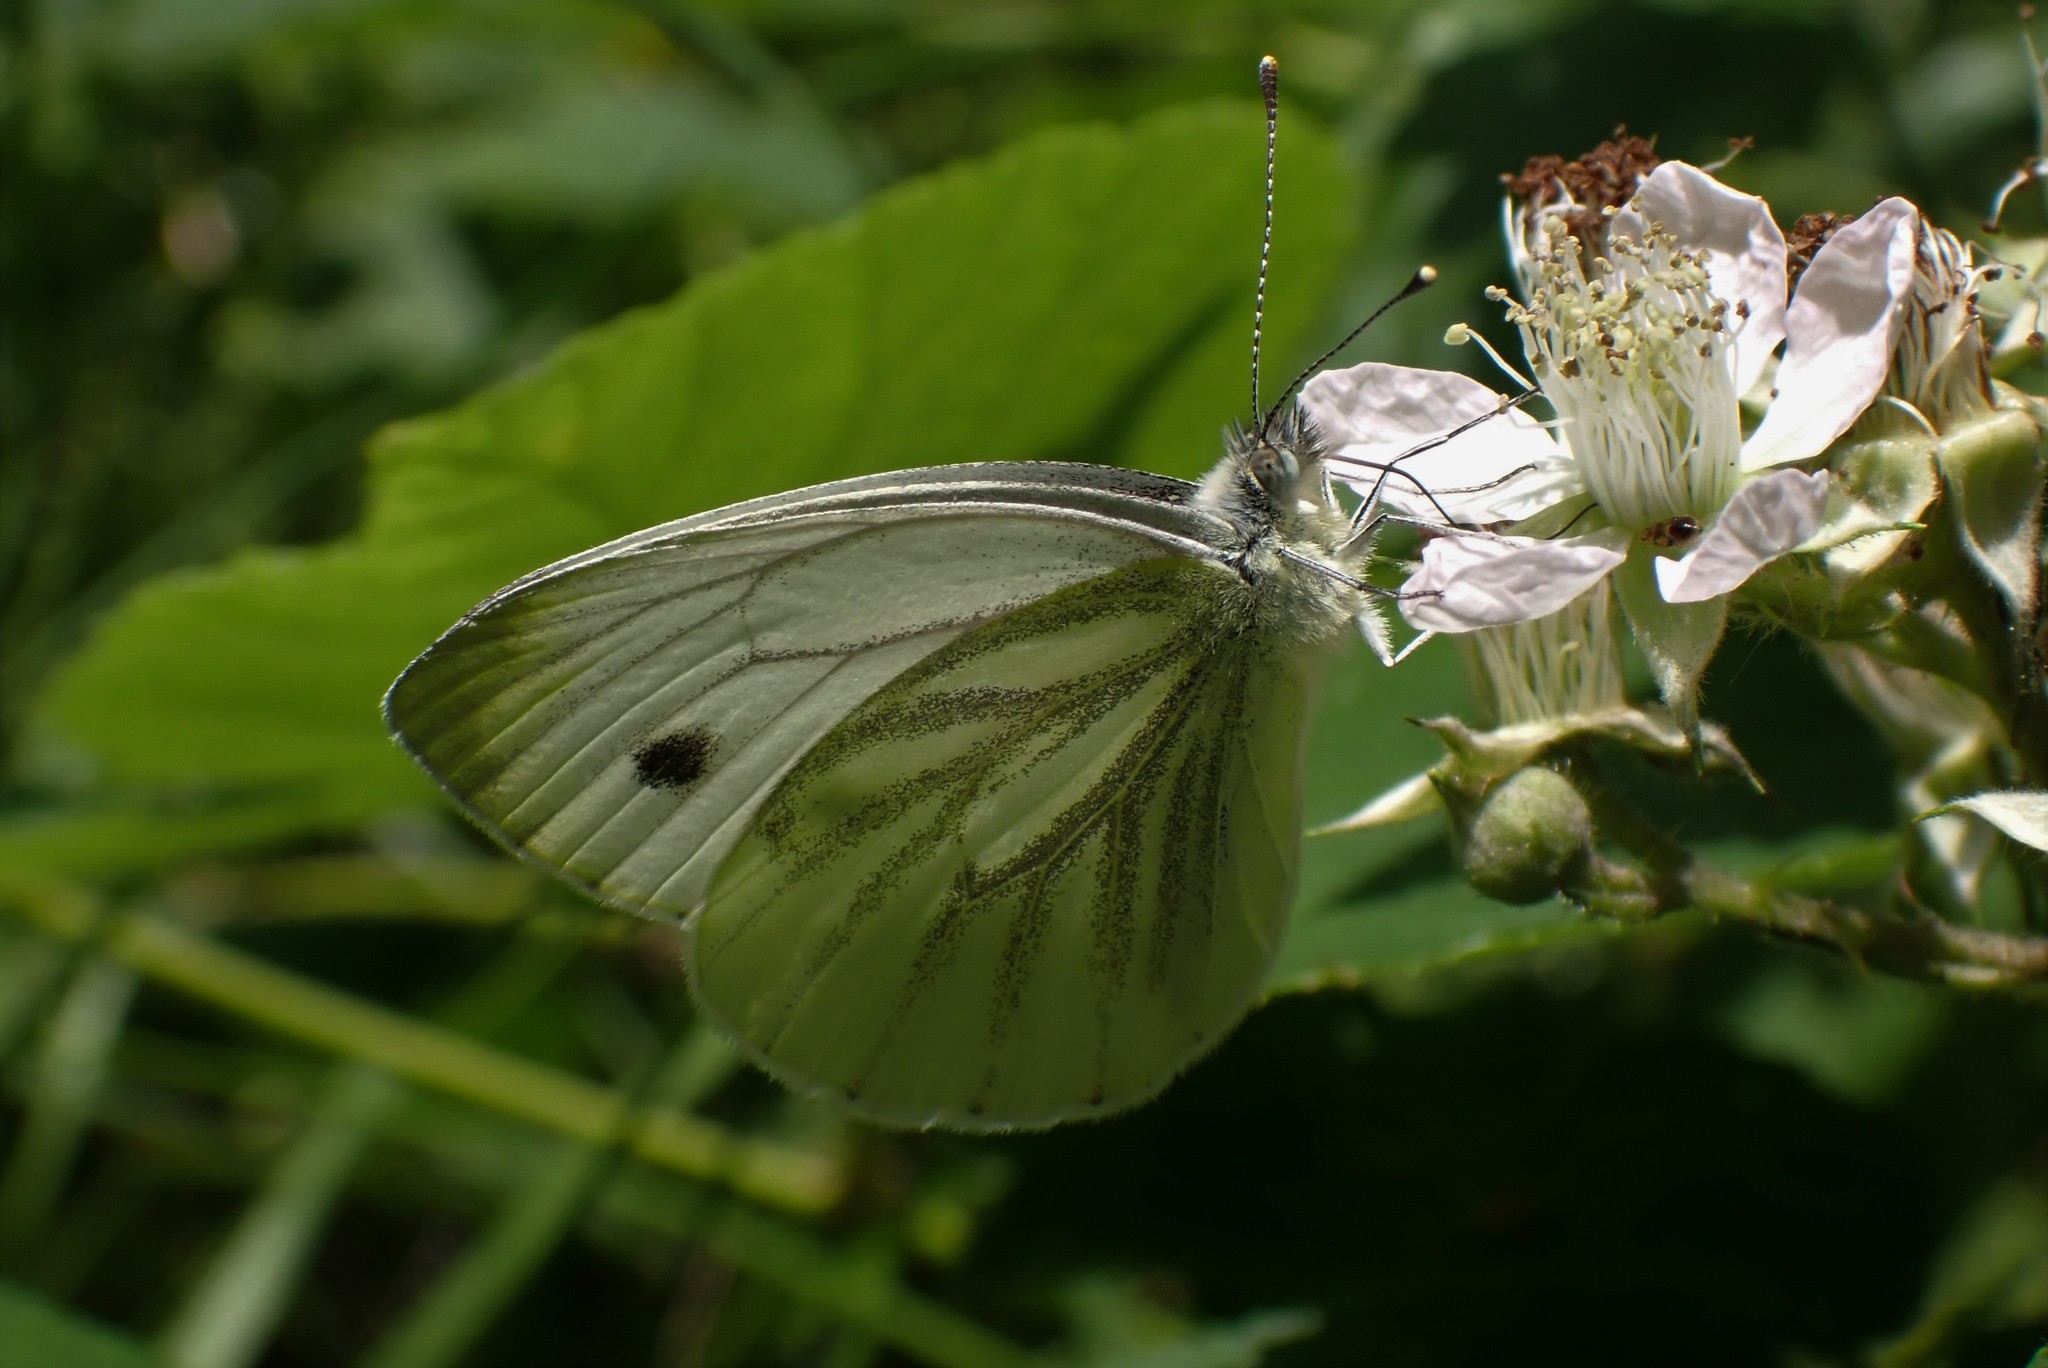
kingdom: Animalia
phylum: Arthropoda
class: Insecta
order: Lepidoptera
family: Pieridae
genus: Pieris
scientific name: Pieris napi
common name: Green-veined white
